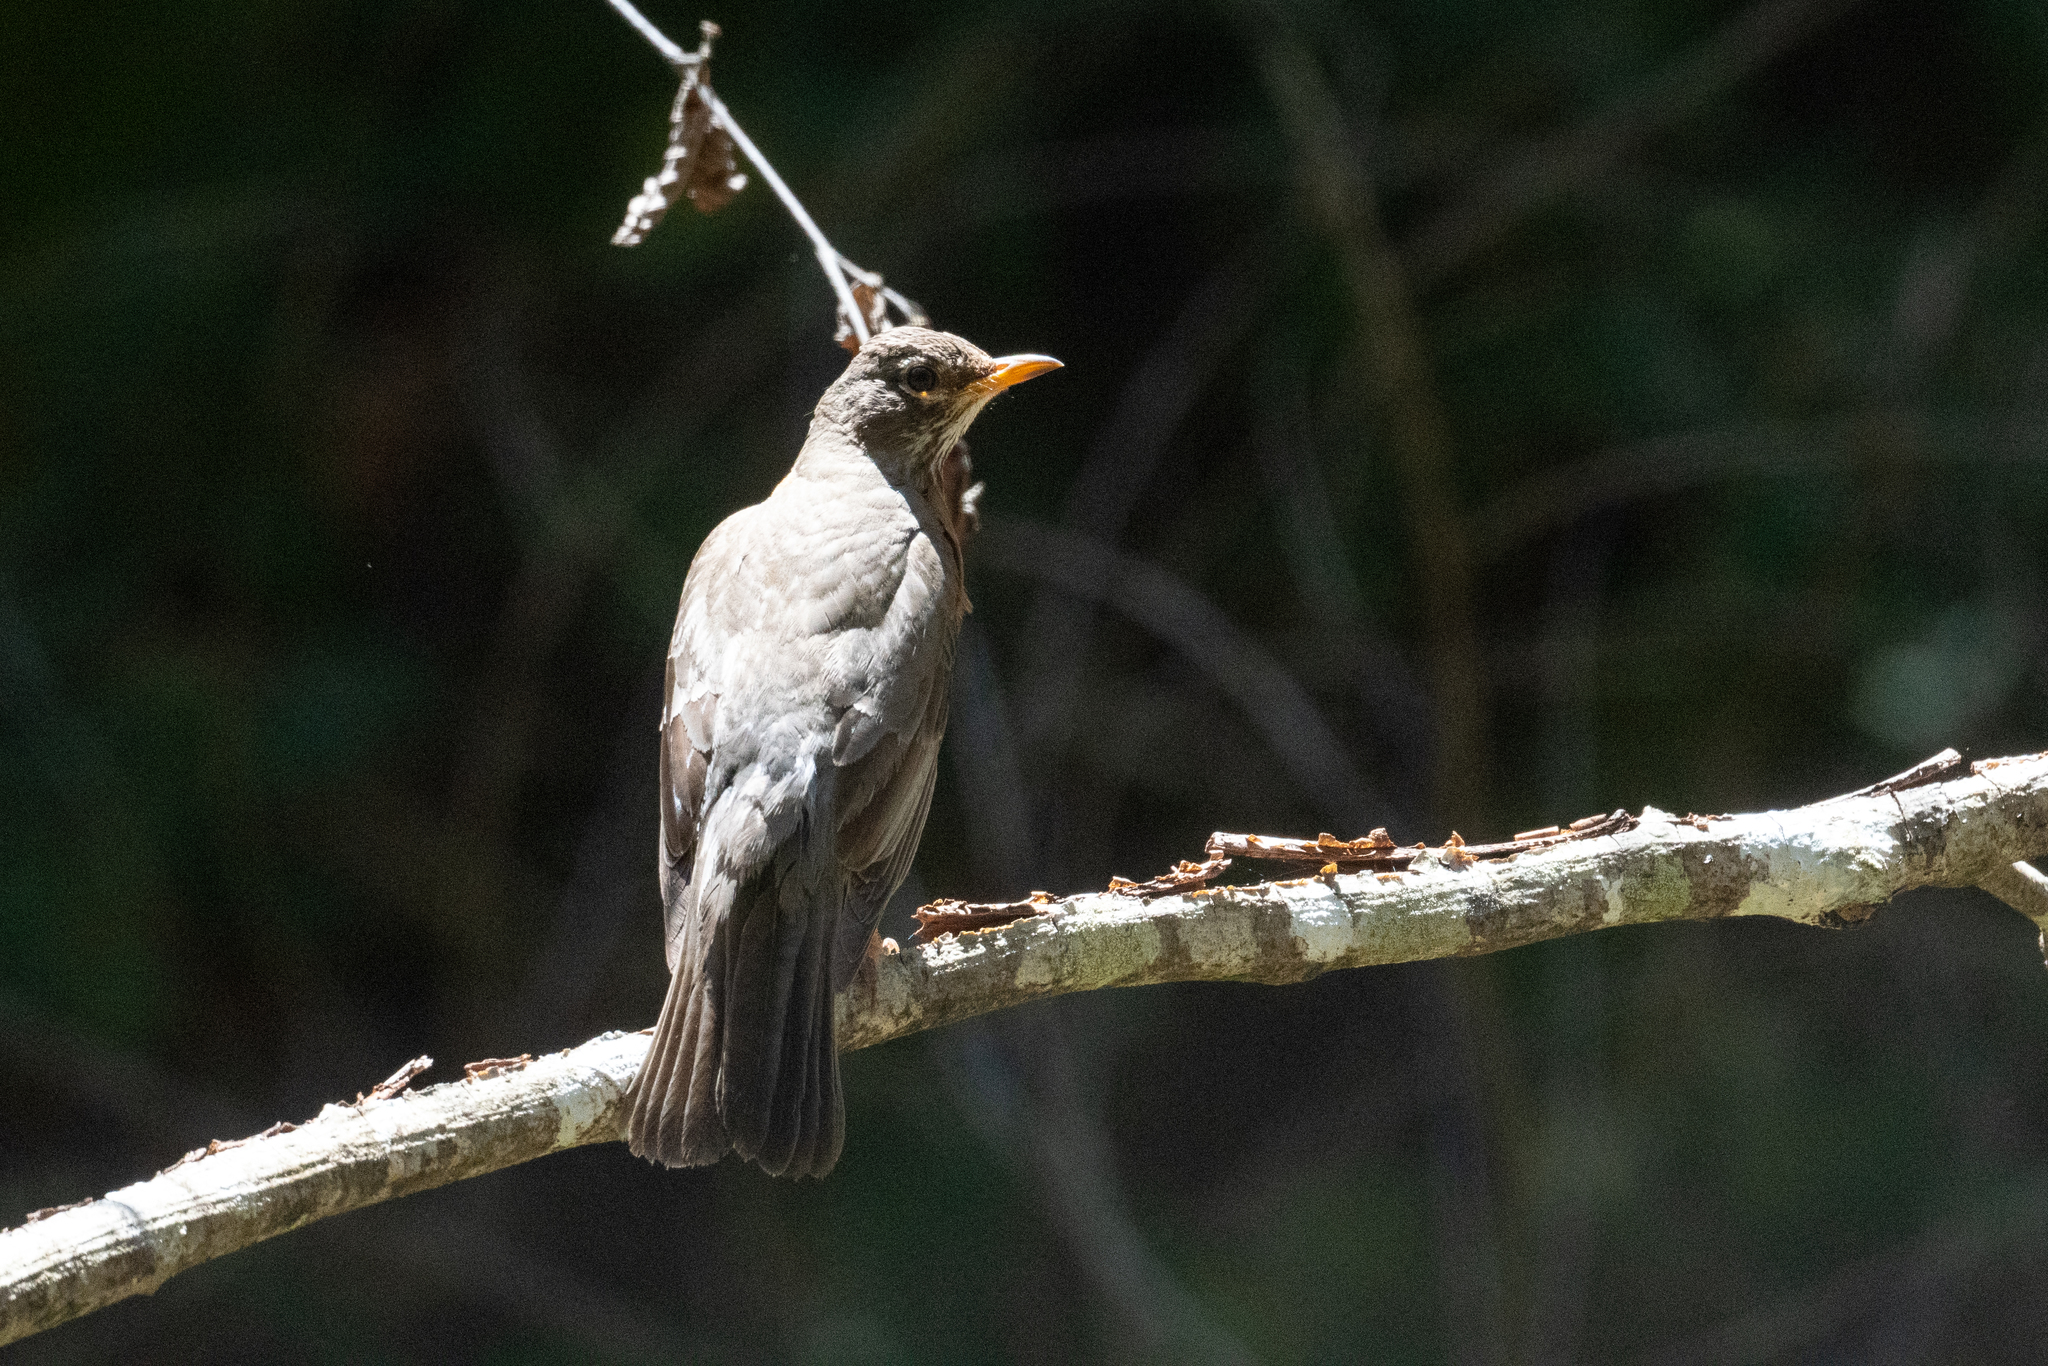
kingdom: Animalia
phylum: Chordata
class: Aves
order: Passeriformes
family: Turdidae
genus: Turdus
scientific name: Turdus migratorius
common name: American robin
